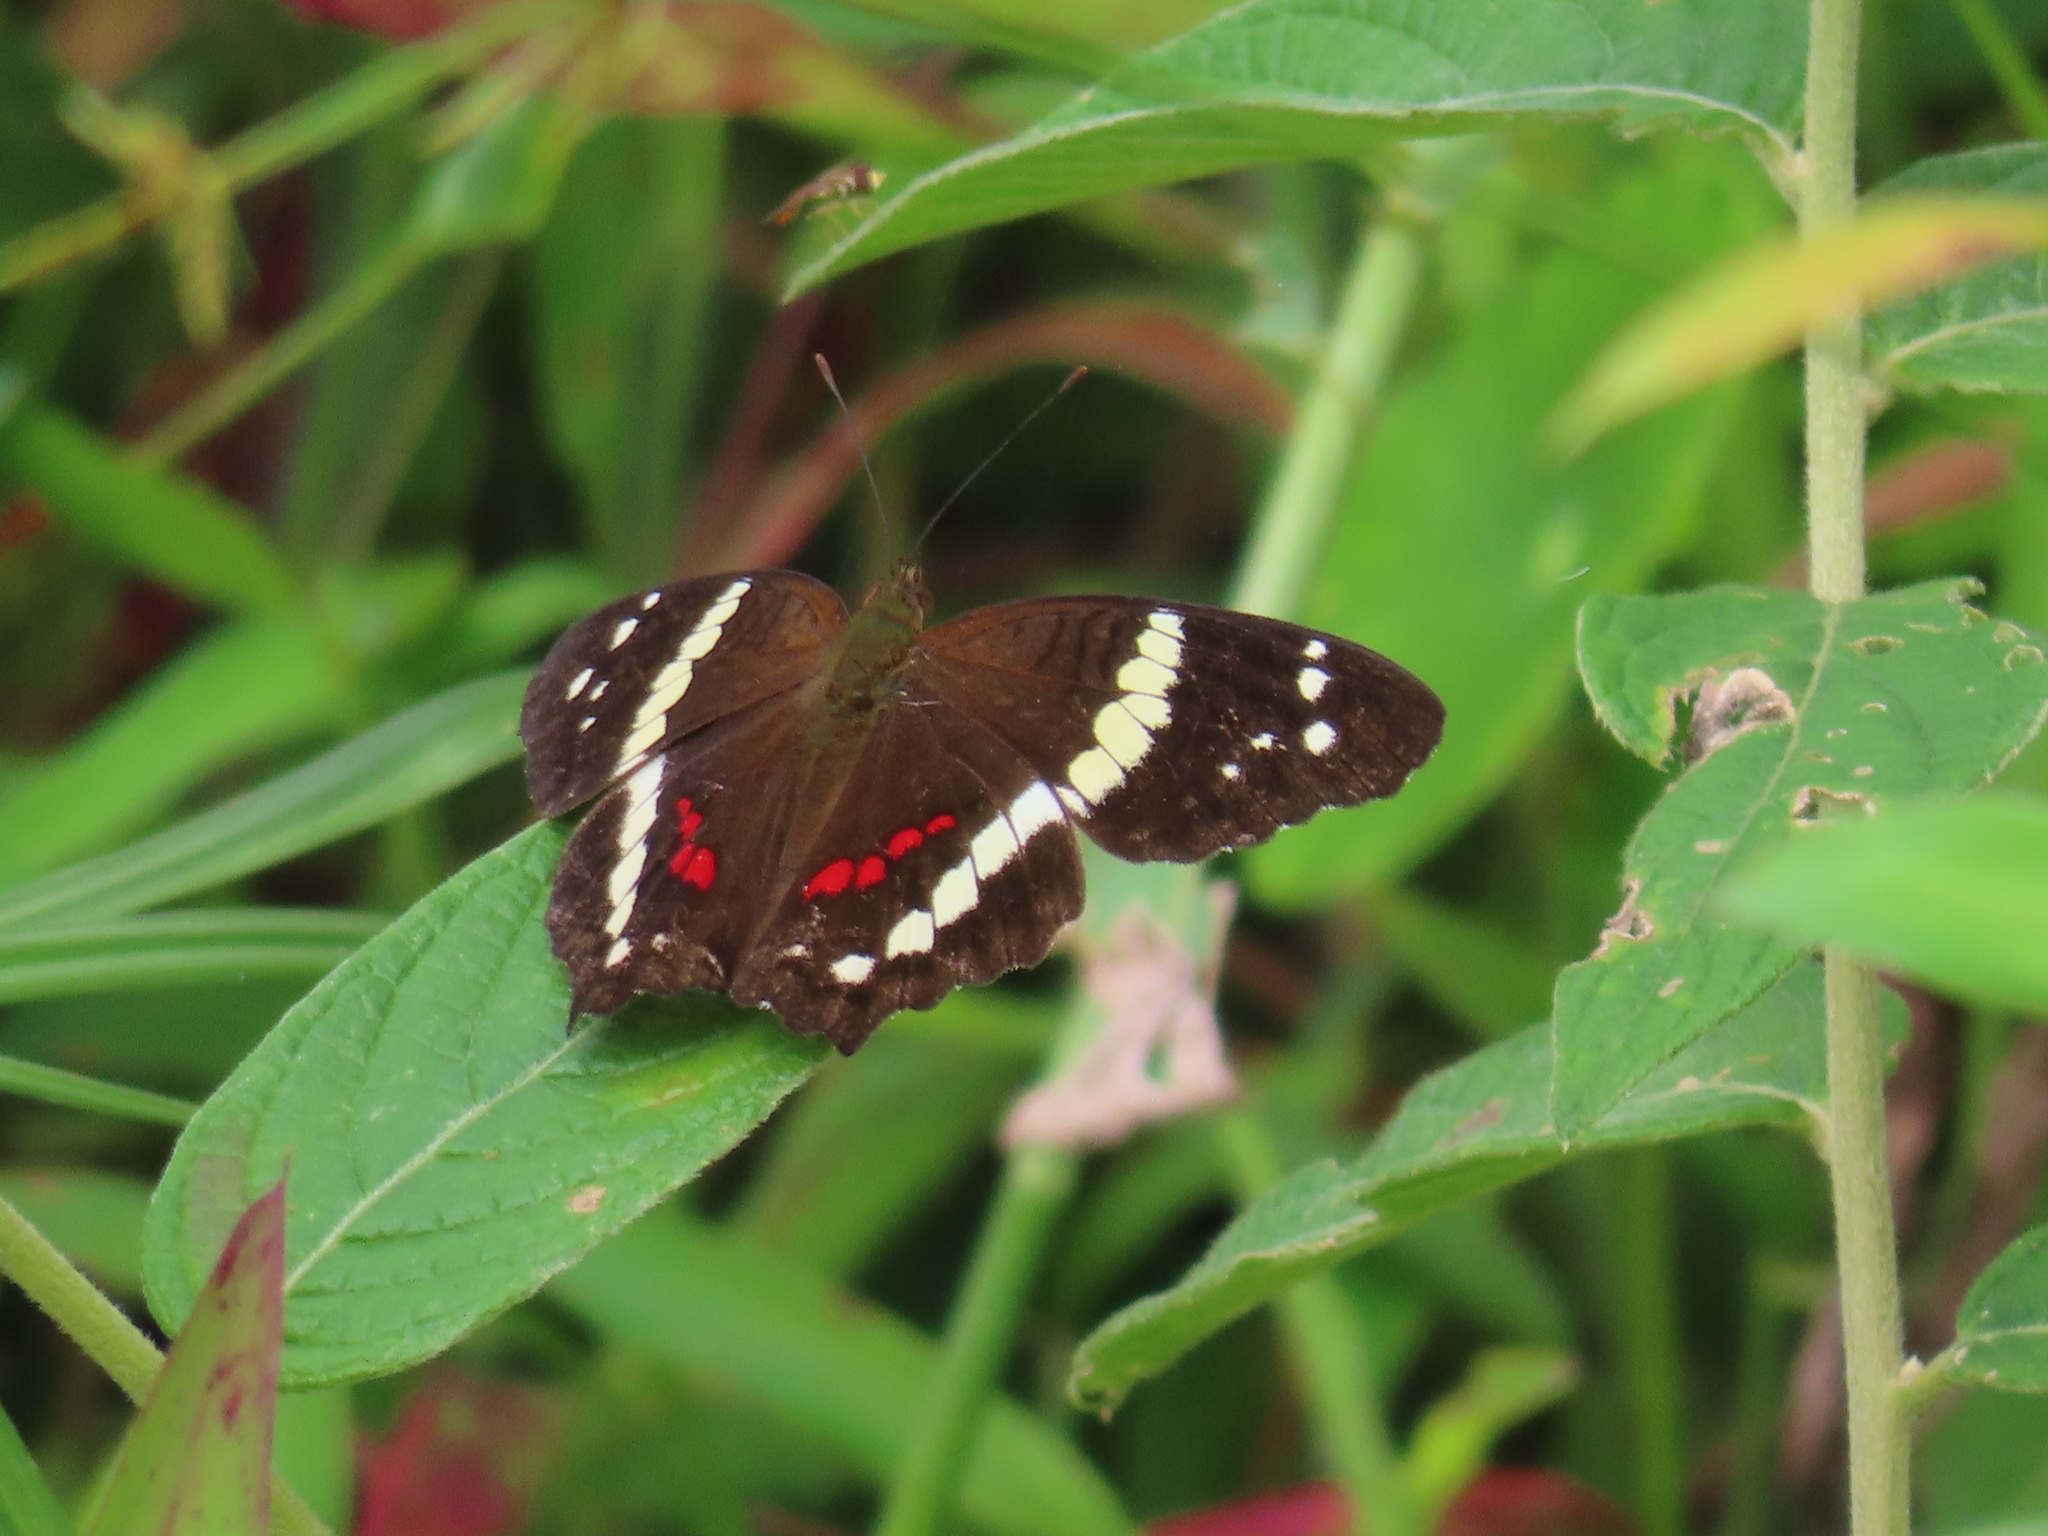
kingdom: Animalia
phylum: Arthropoda
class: Insecta
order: Lepidoptera
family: Nymphalidae
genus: Anartia
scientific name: Anartia fatima
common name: Banded peacock
